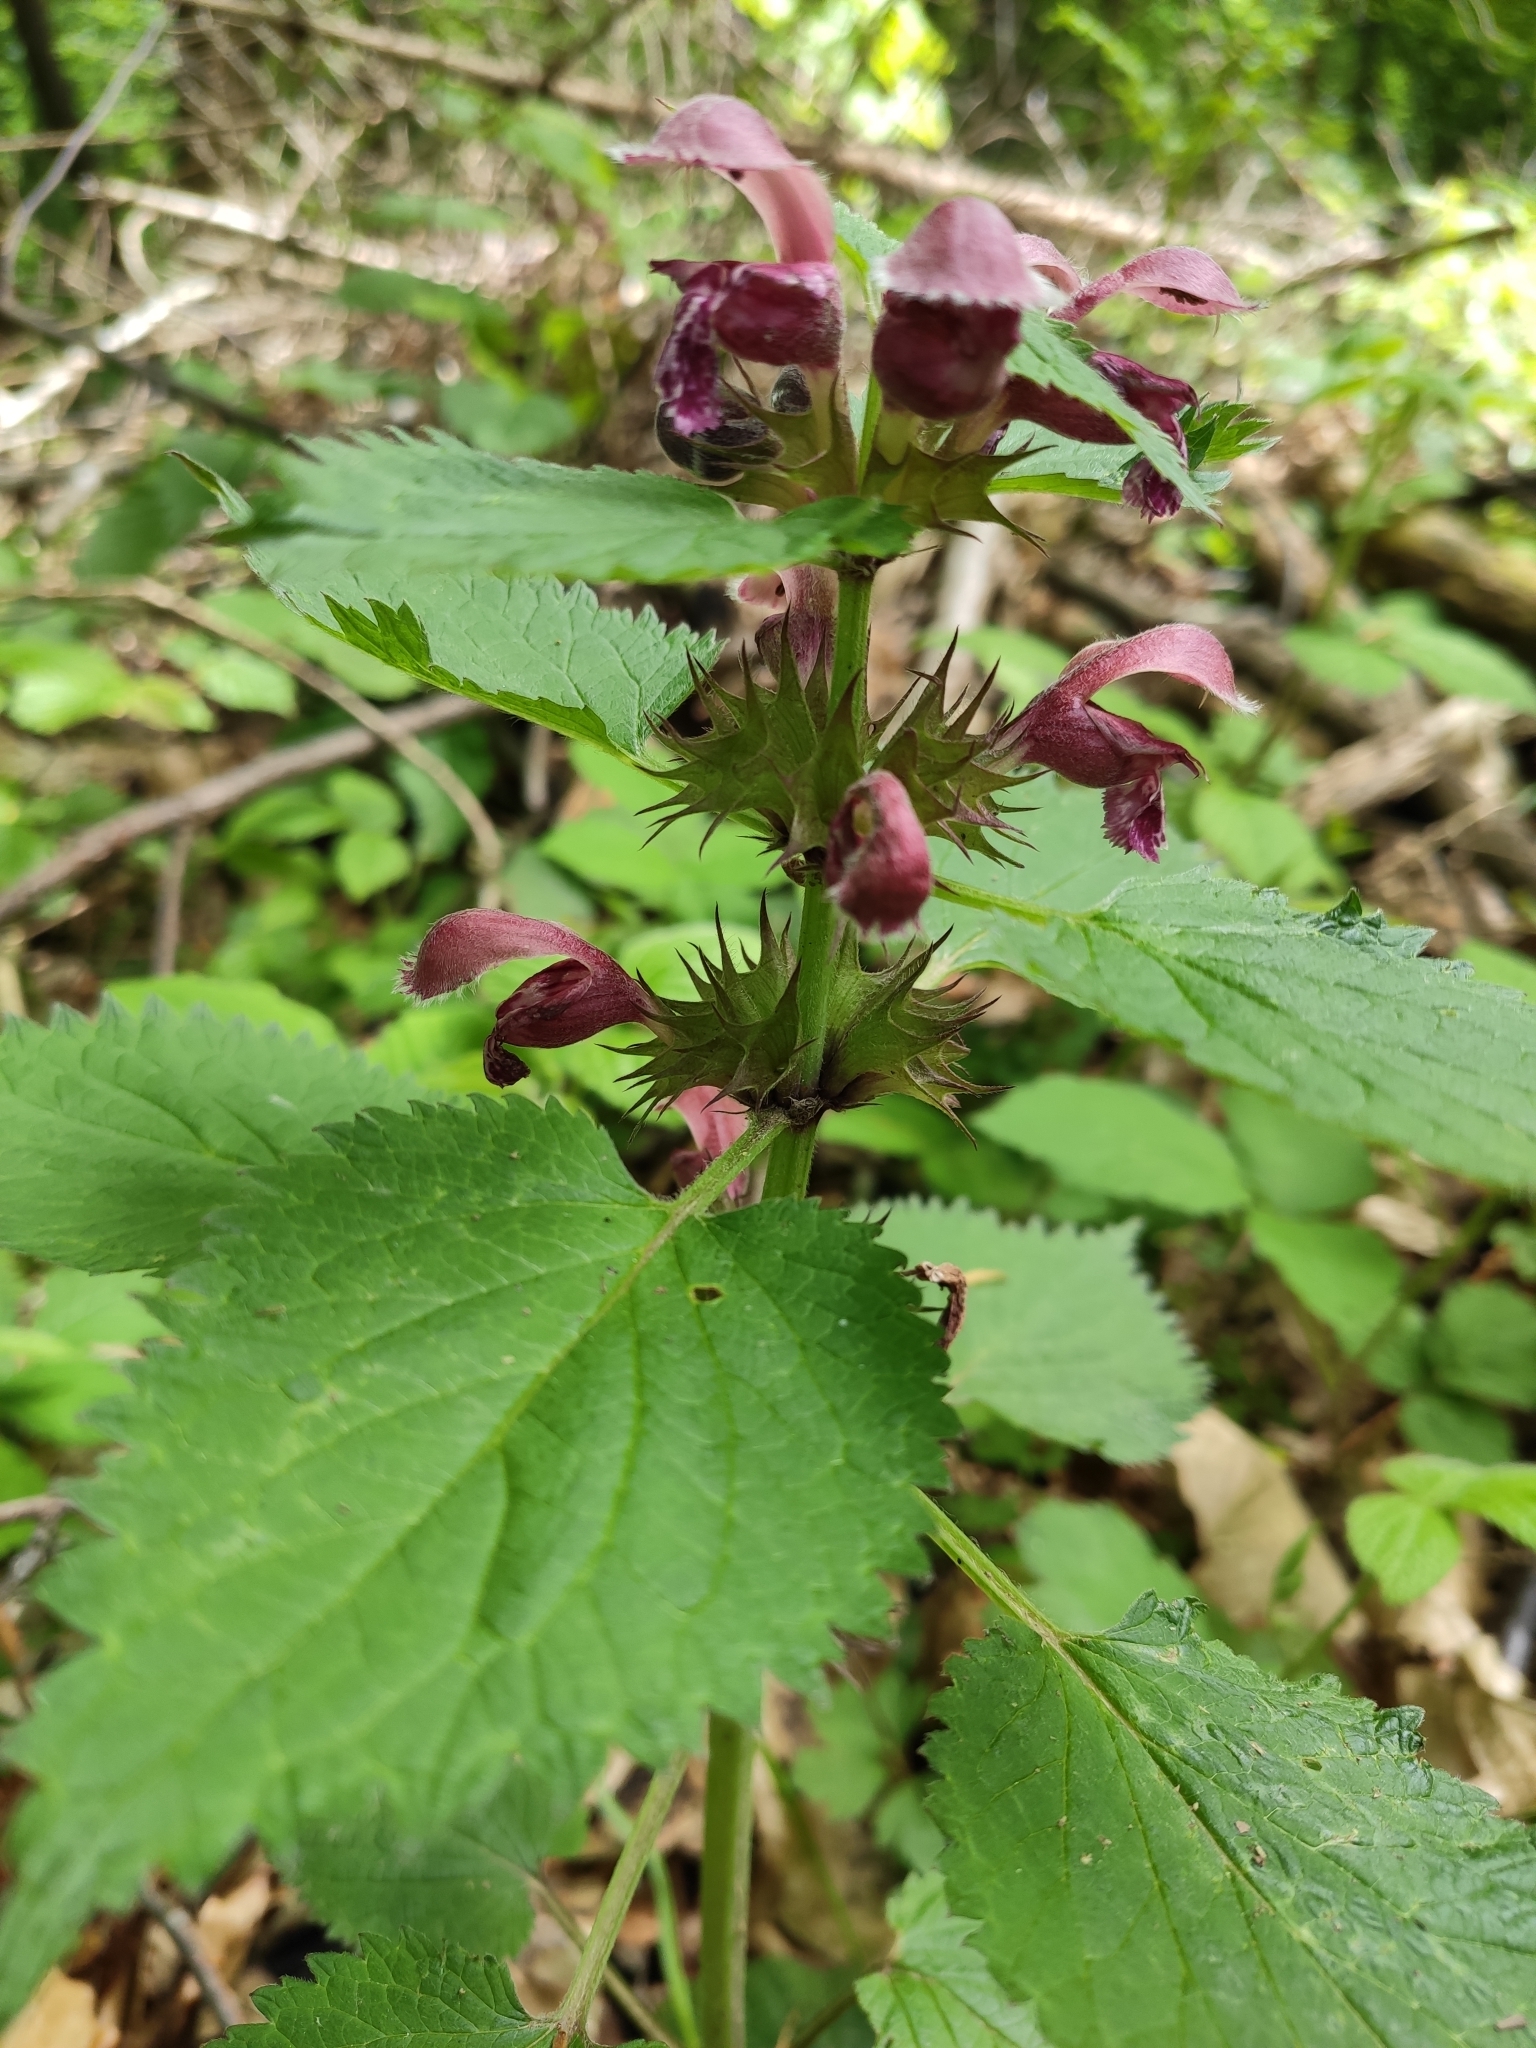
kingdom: Plantae
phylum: Tracheophyta
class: Magnoliopsida
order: Lamiales
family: Lamiaceae
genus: Lamium
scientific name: Lamium orvala
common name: Balm-leaved archangel
